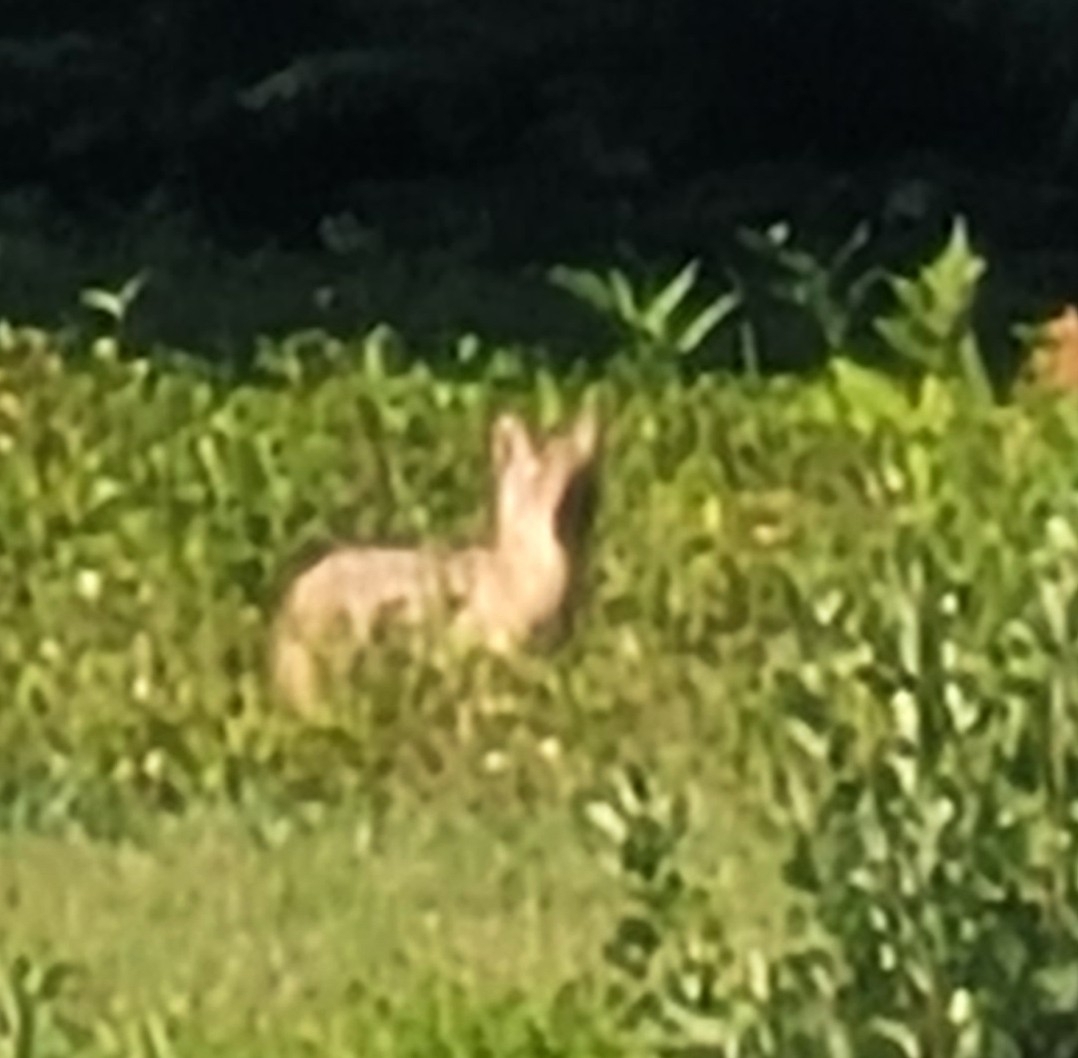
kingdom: Animalia
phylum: Chordata
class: Mammalia
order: Carnivora
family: Canidae
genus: Canis
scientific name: Canis latrans
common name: Coyote
